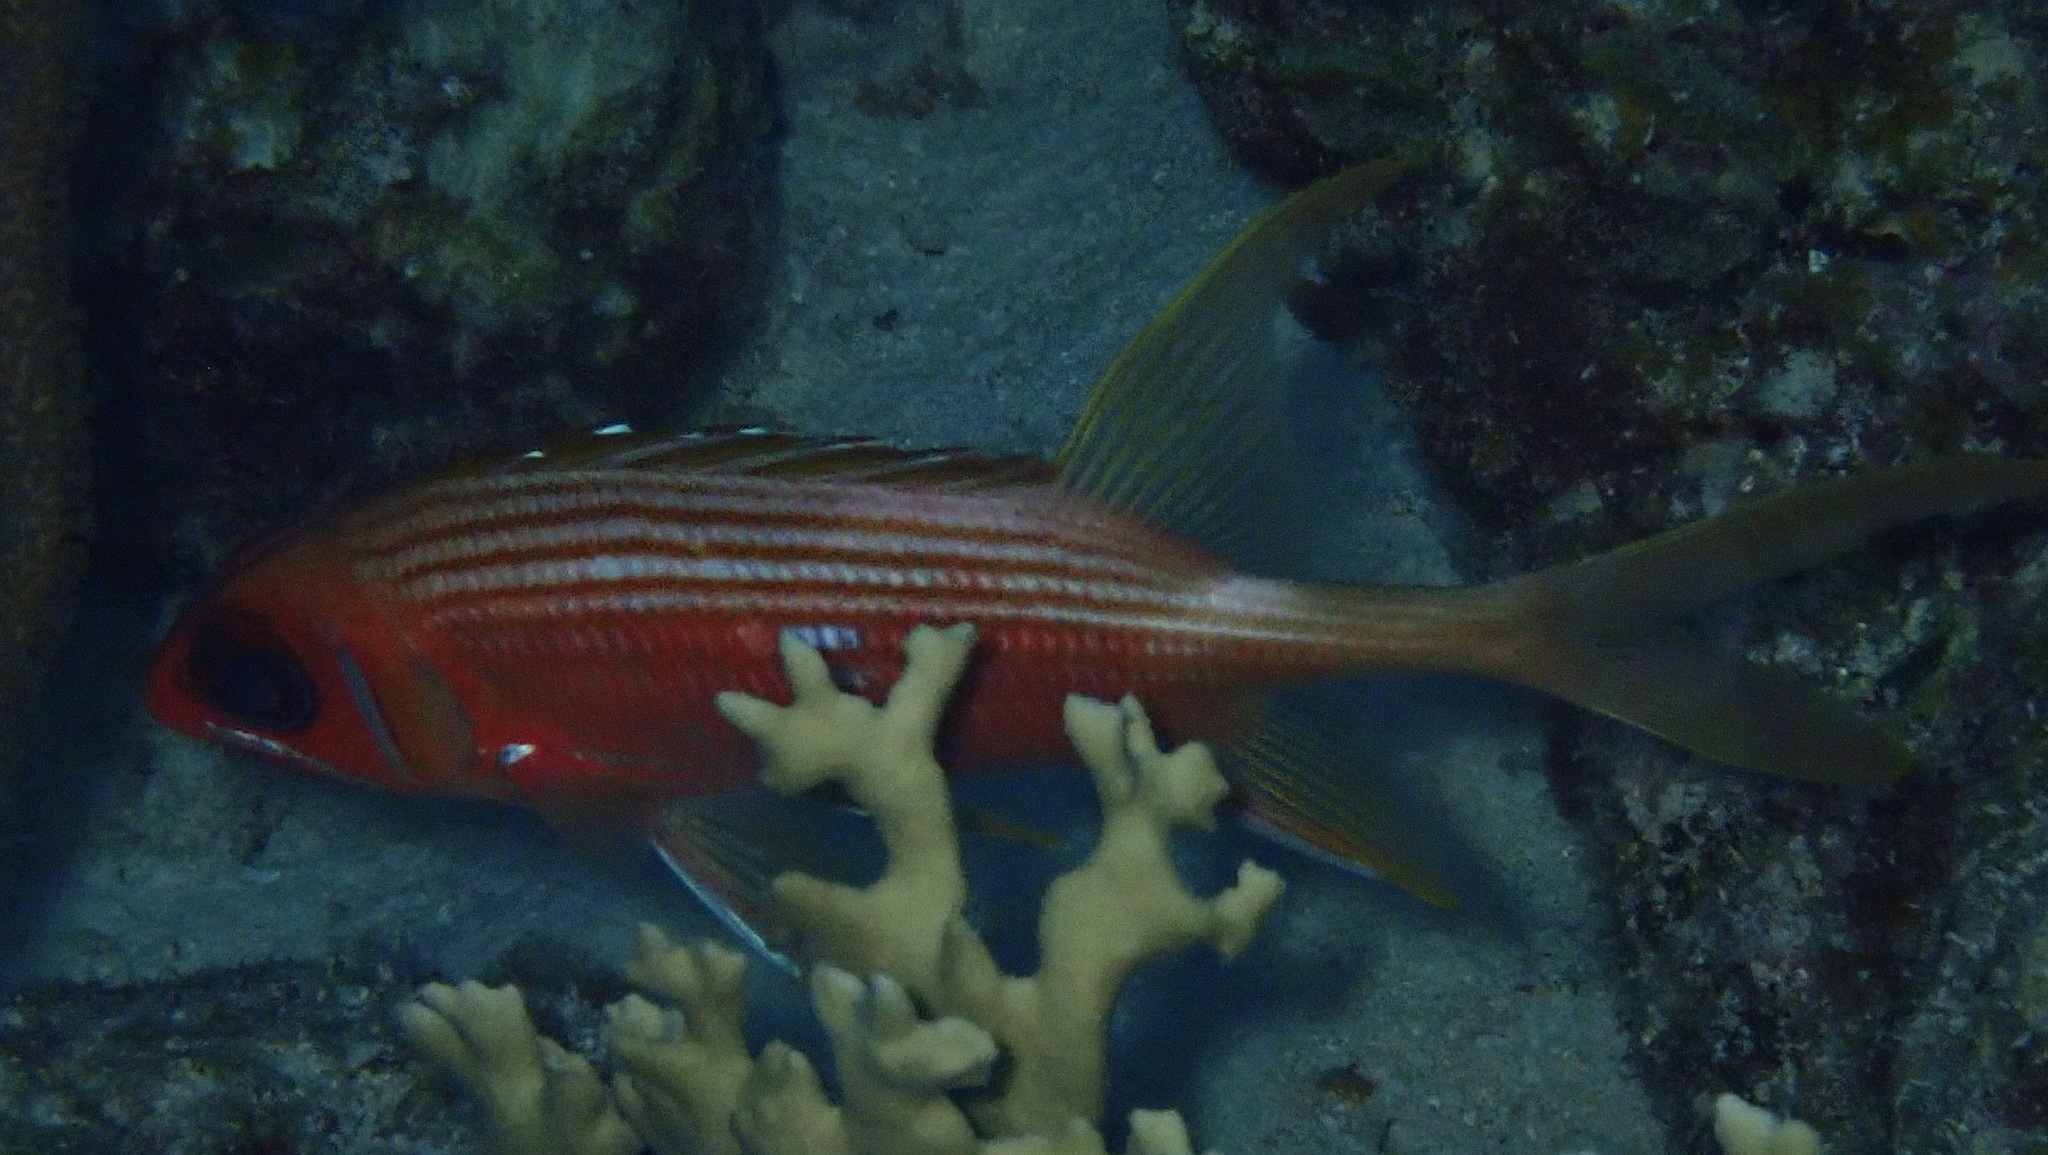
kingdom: Animalia
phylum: Chordata
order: Beryciformes
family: Holocentridae
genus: Holocentrus
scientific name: Holocentrus rufus
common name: Longspine squirrelfish
